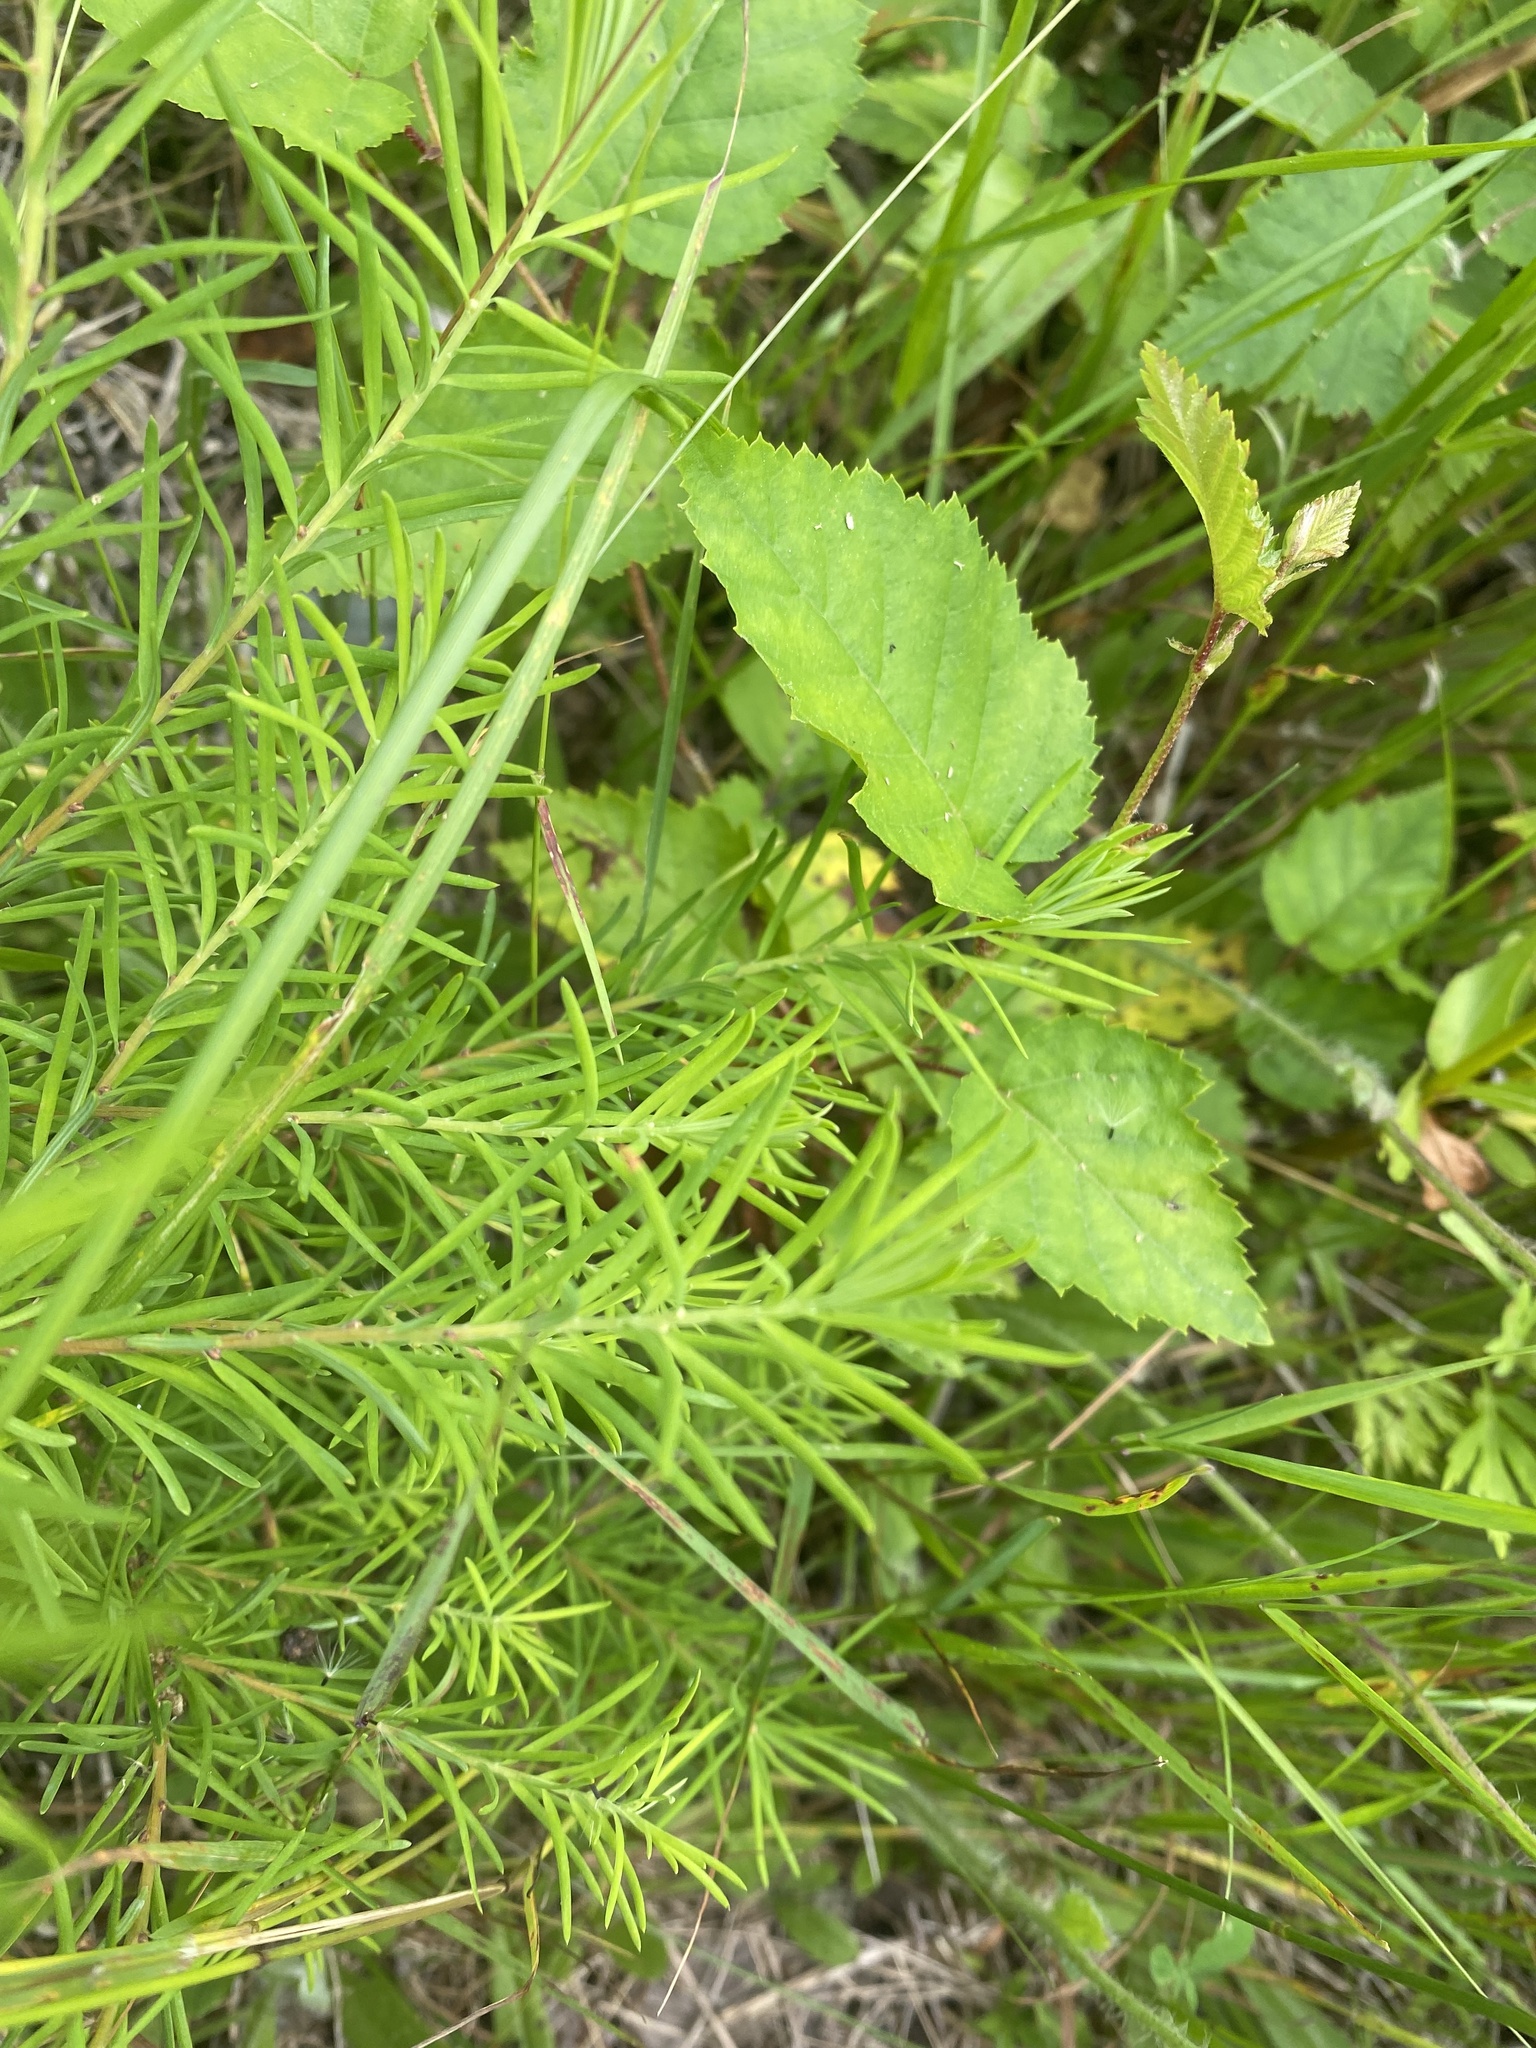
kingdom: Plantae
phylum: Tracheophyta
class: Liliopsida
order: Asparagales
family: Asparagaceae
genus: Asparagus
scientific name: Asparagus schoberioides
